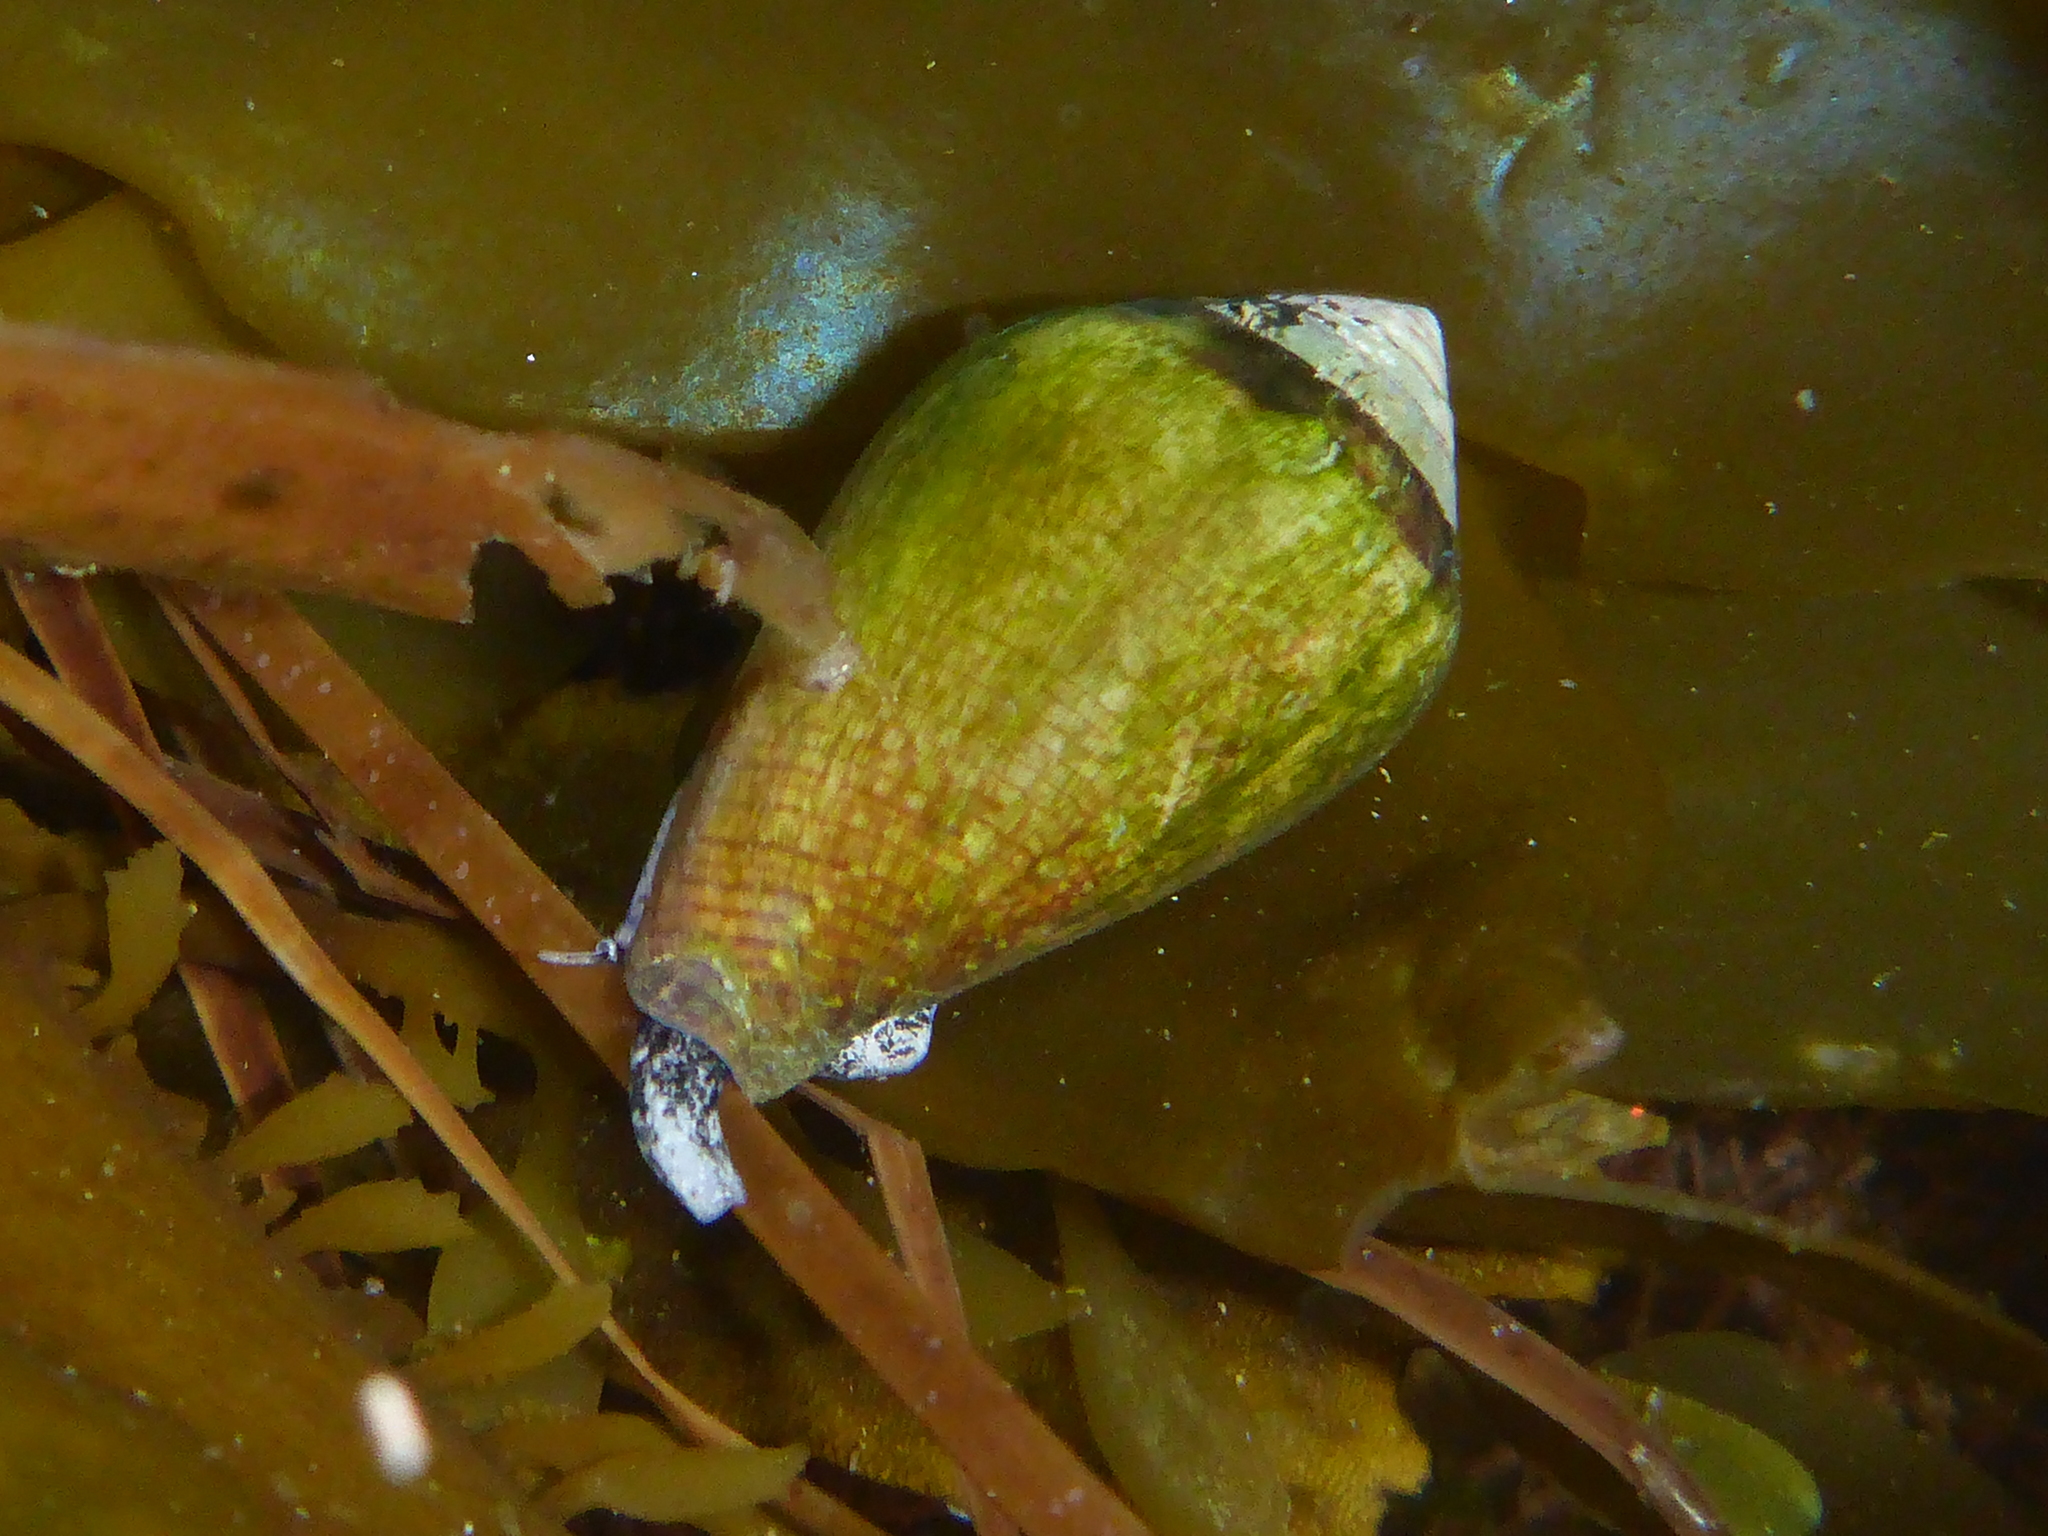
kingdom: Animalia
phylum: Mollusca
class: Gastropoda
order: Neogastropoda
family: Conidae
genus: Californiconus
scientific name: Californiconus californicus
